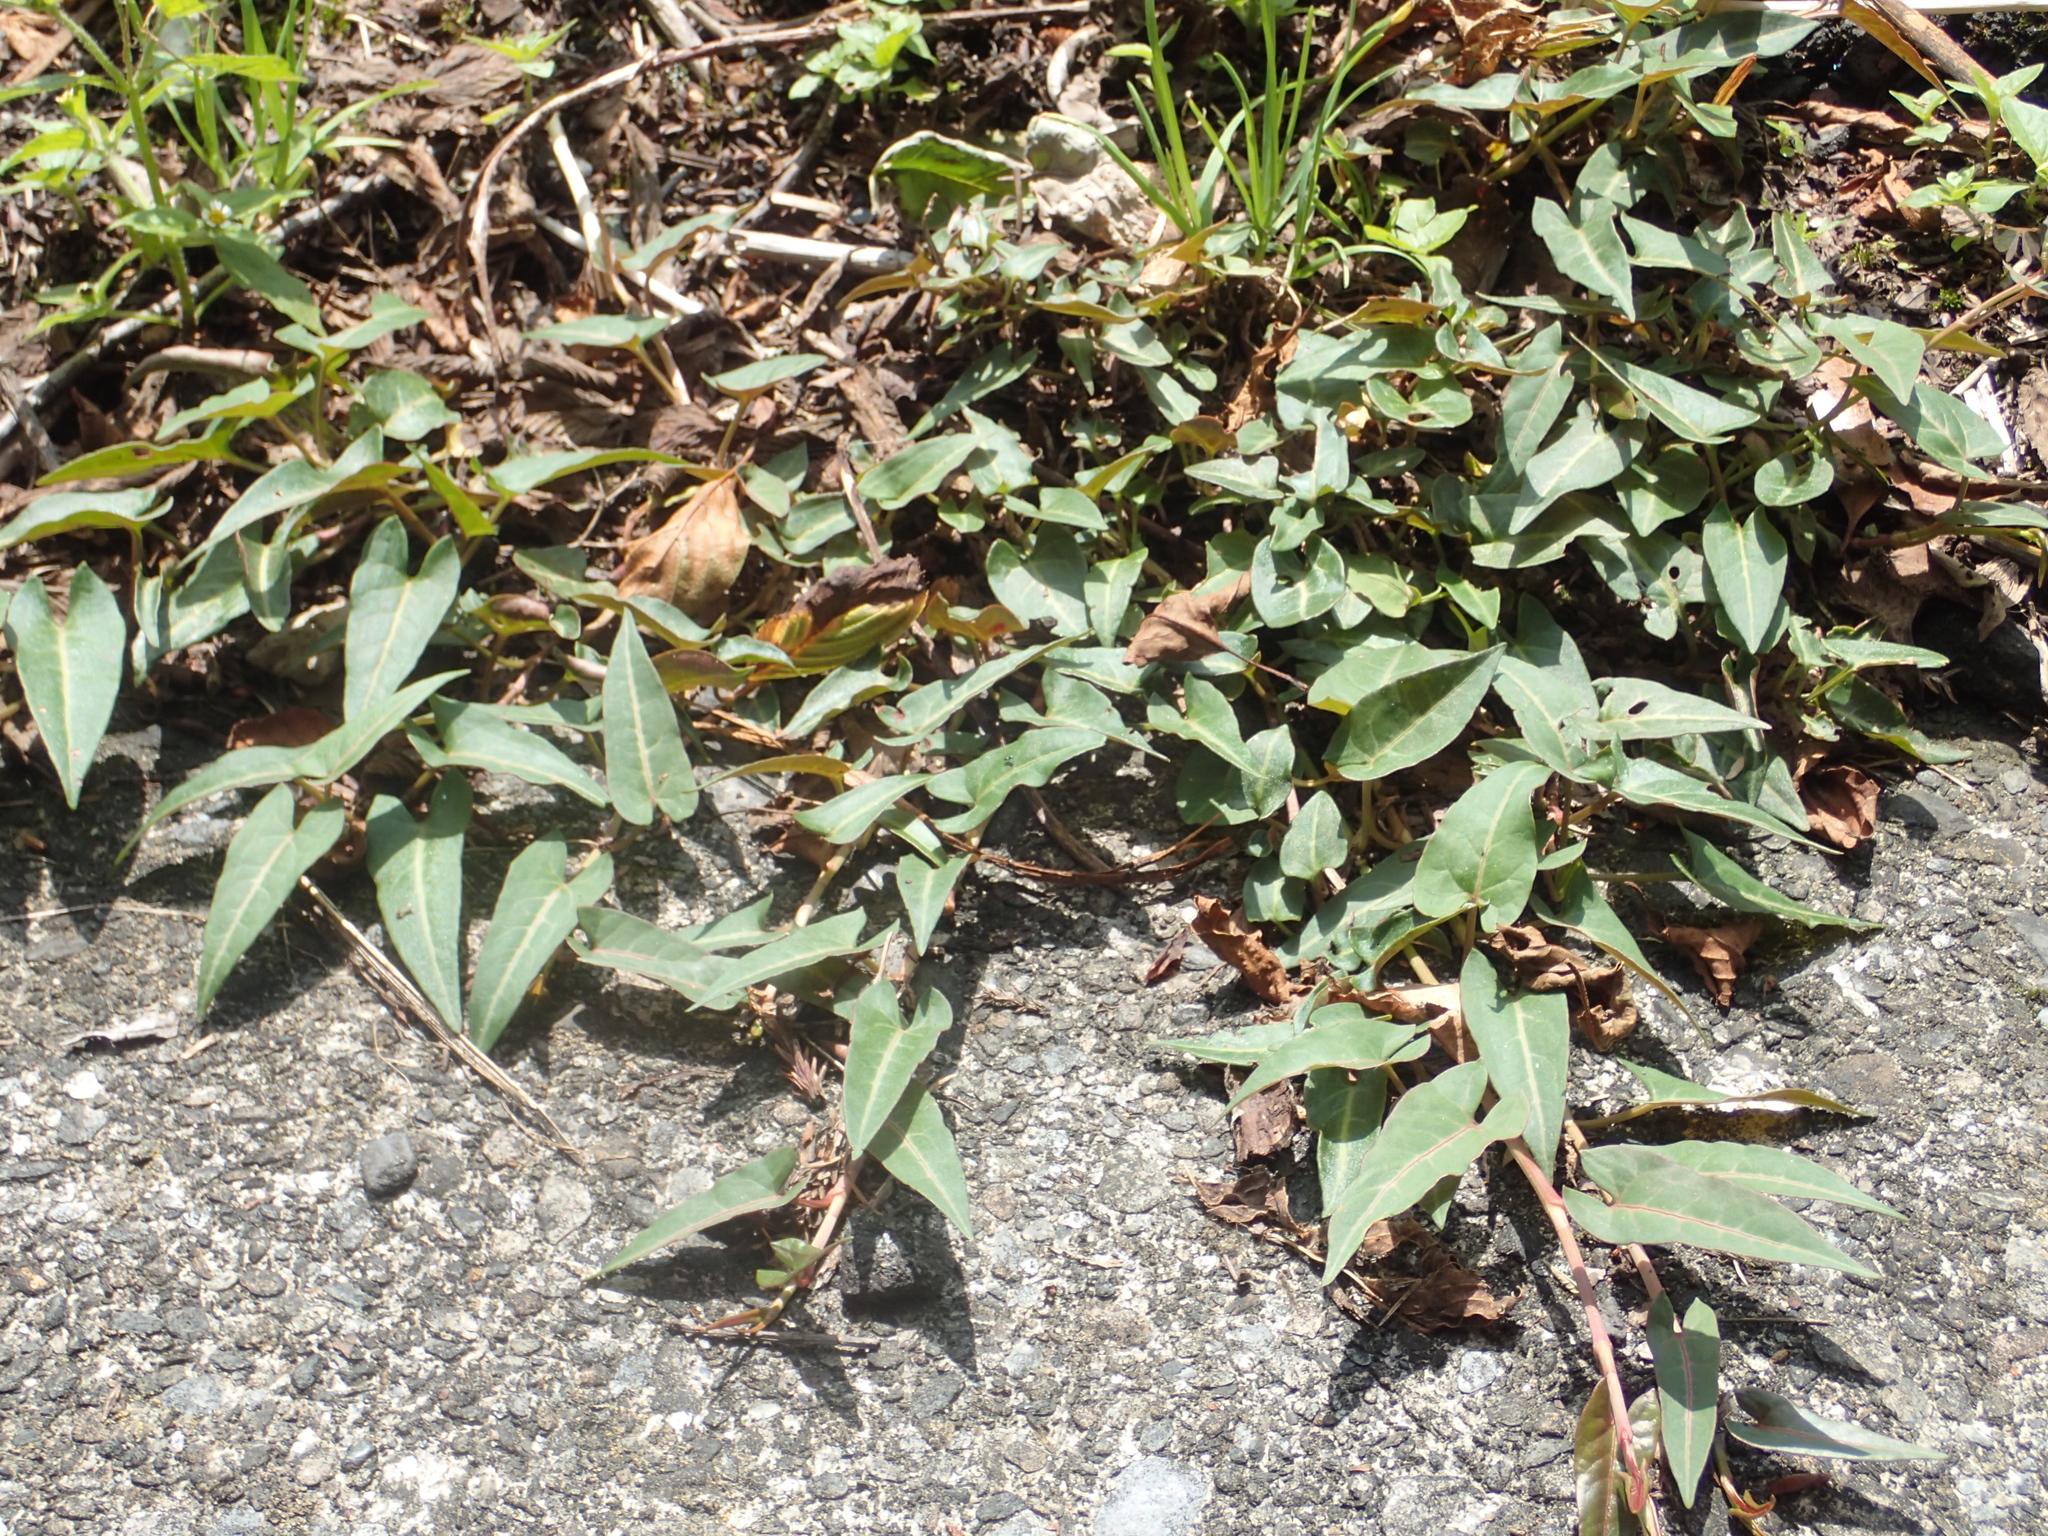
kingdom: Plantae
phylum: Tracheophyta
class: Magnoliopsida
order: Caryophyllales
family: Polygonaceae
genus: Reynoutria
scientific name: Reynoutria multiflora
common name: Chinese fleeceflower
